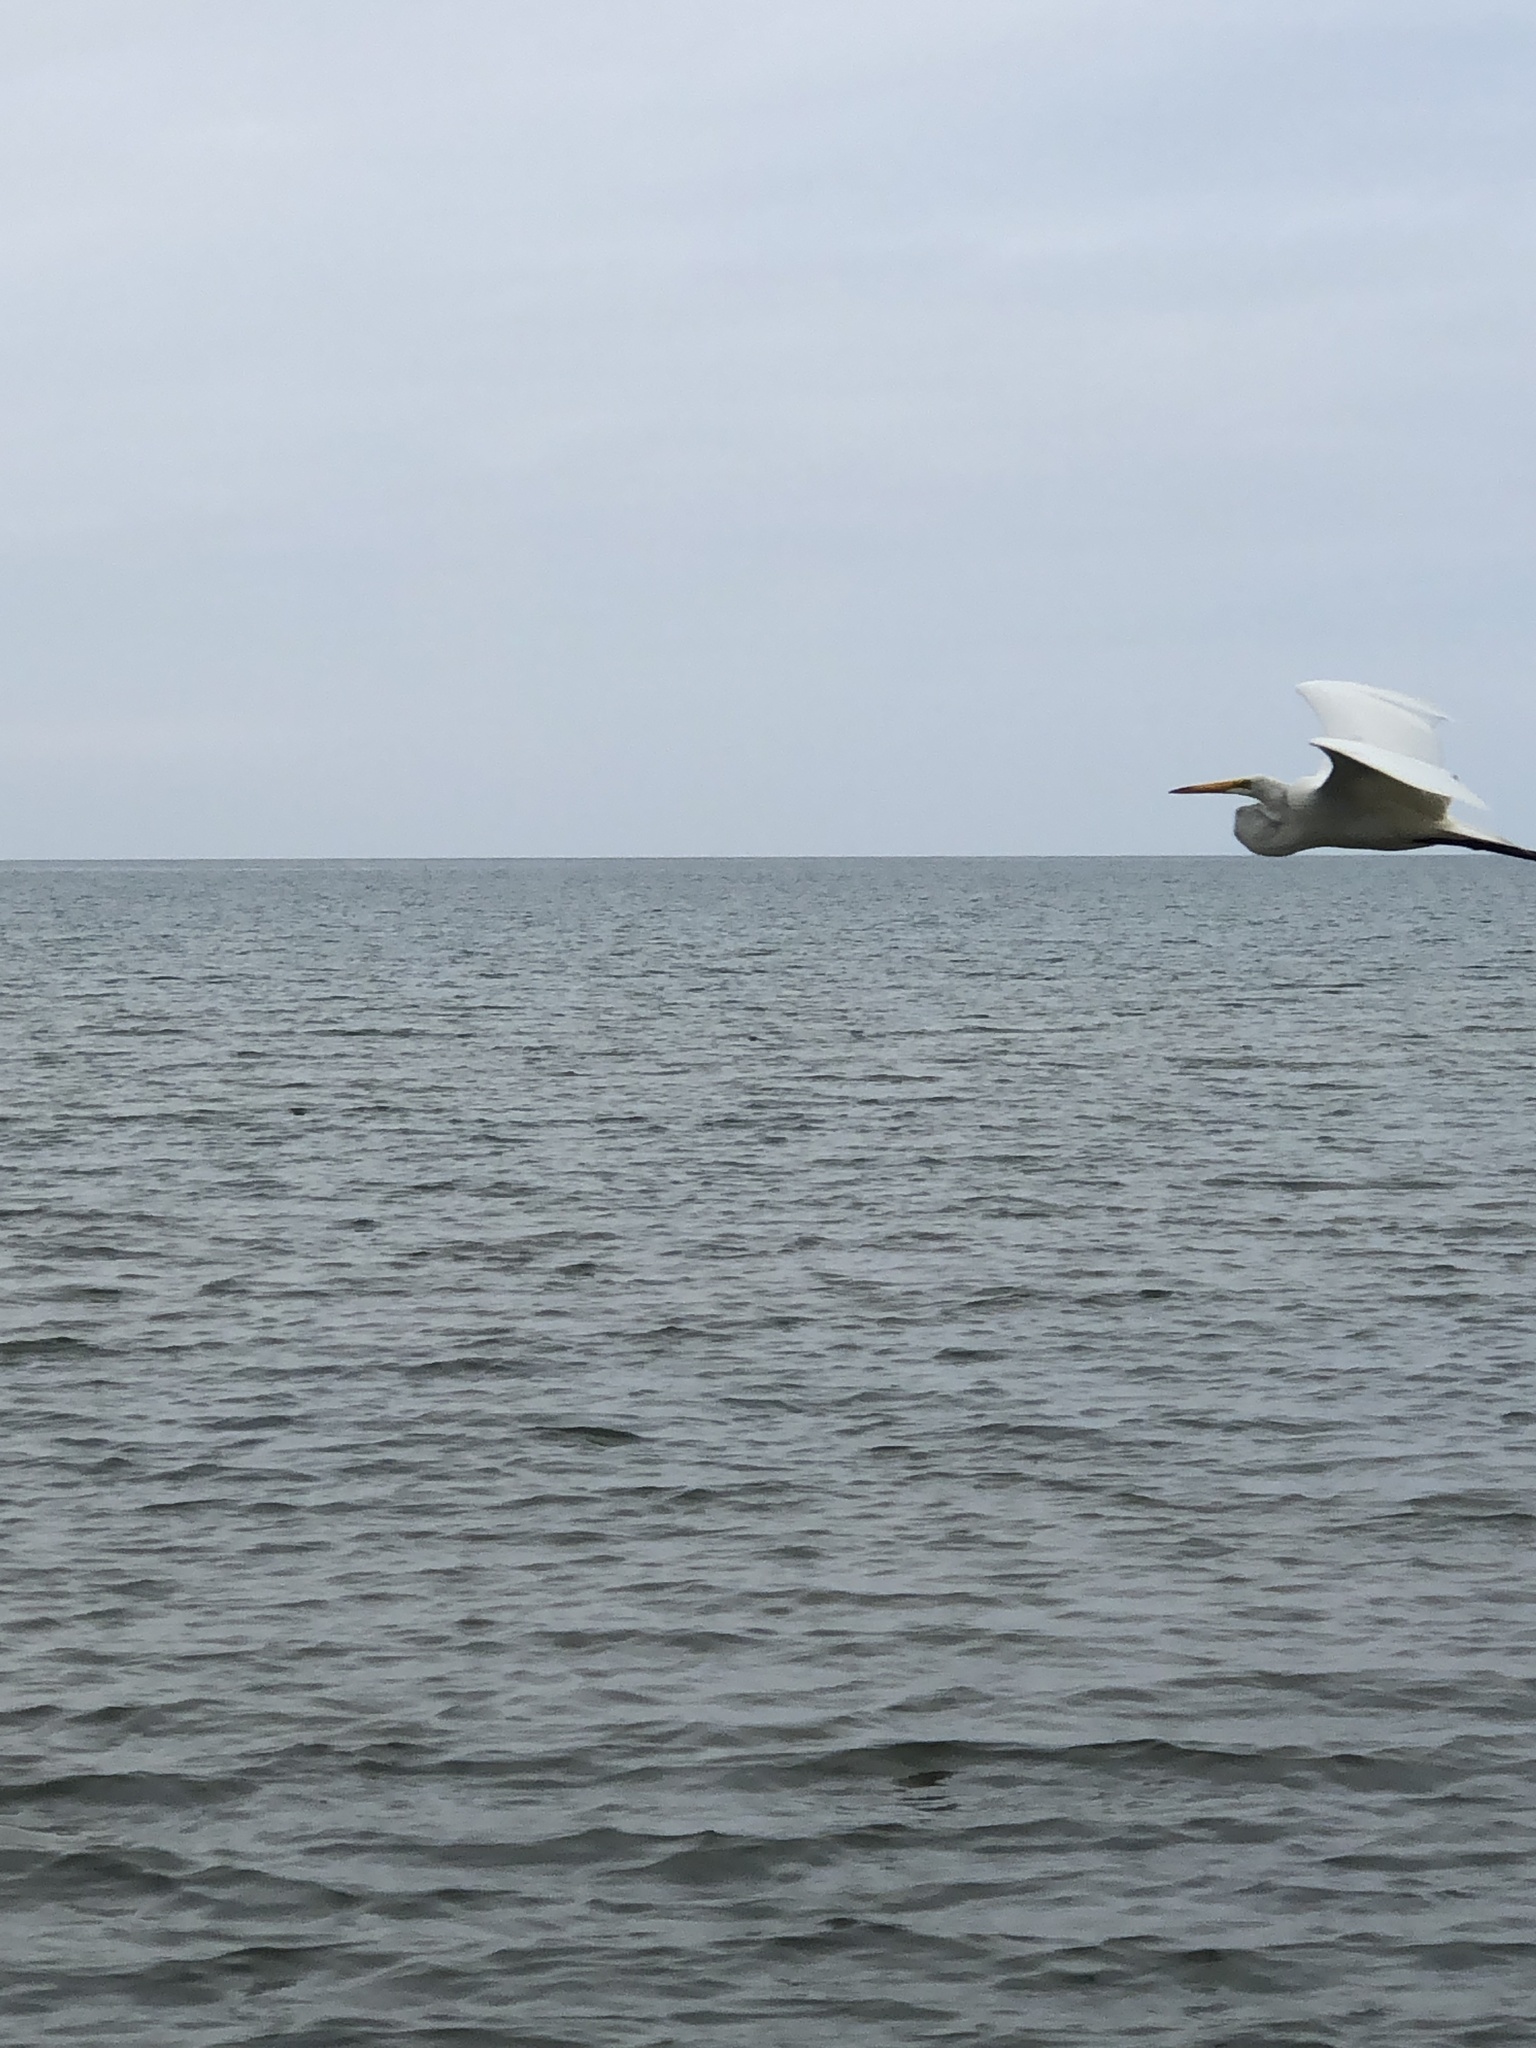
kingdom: Animalia
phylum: Chordata
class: Aves
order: Pelecaniformes
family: Ardeidae
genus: Ardea
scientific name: Ardea alba
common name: Great egret
